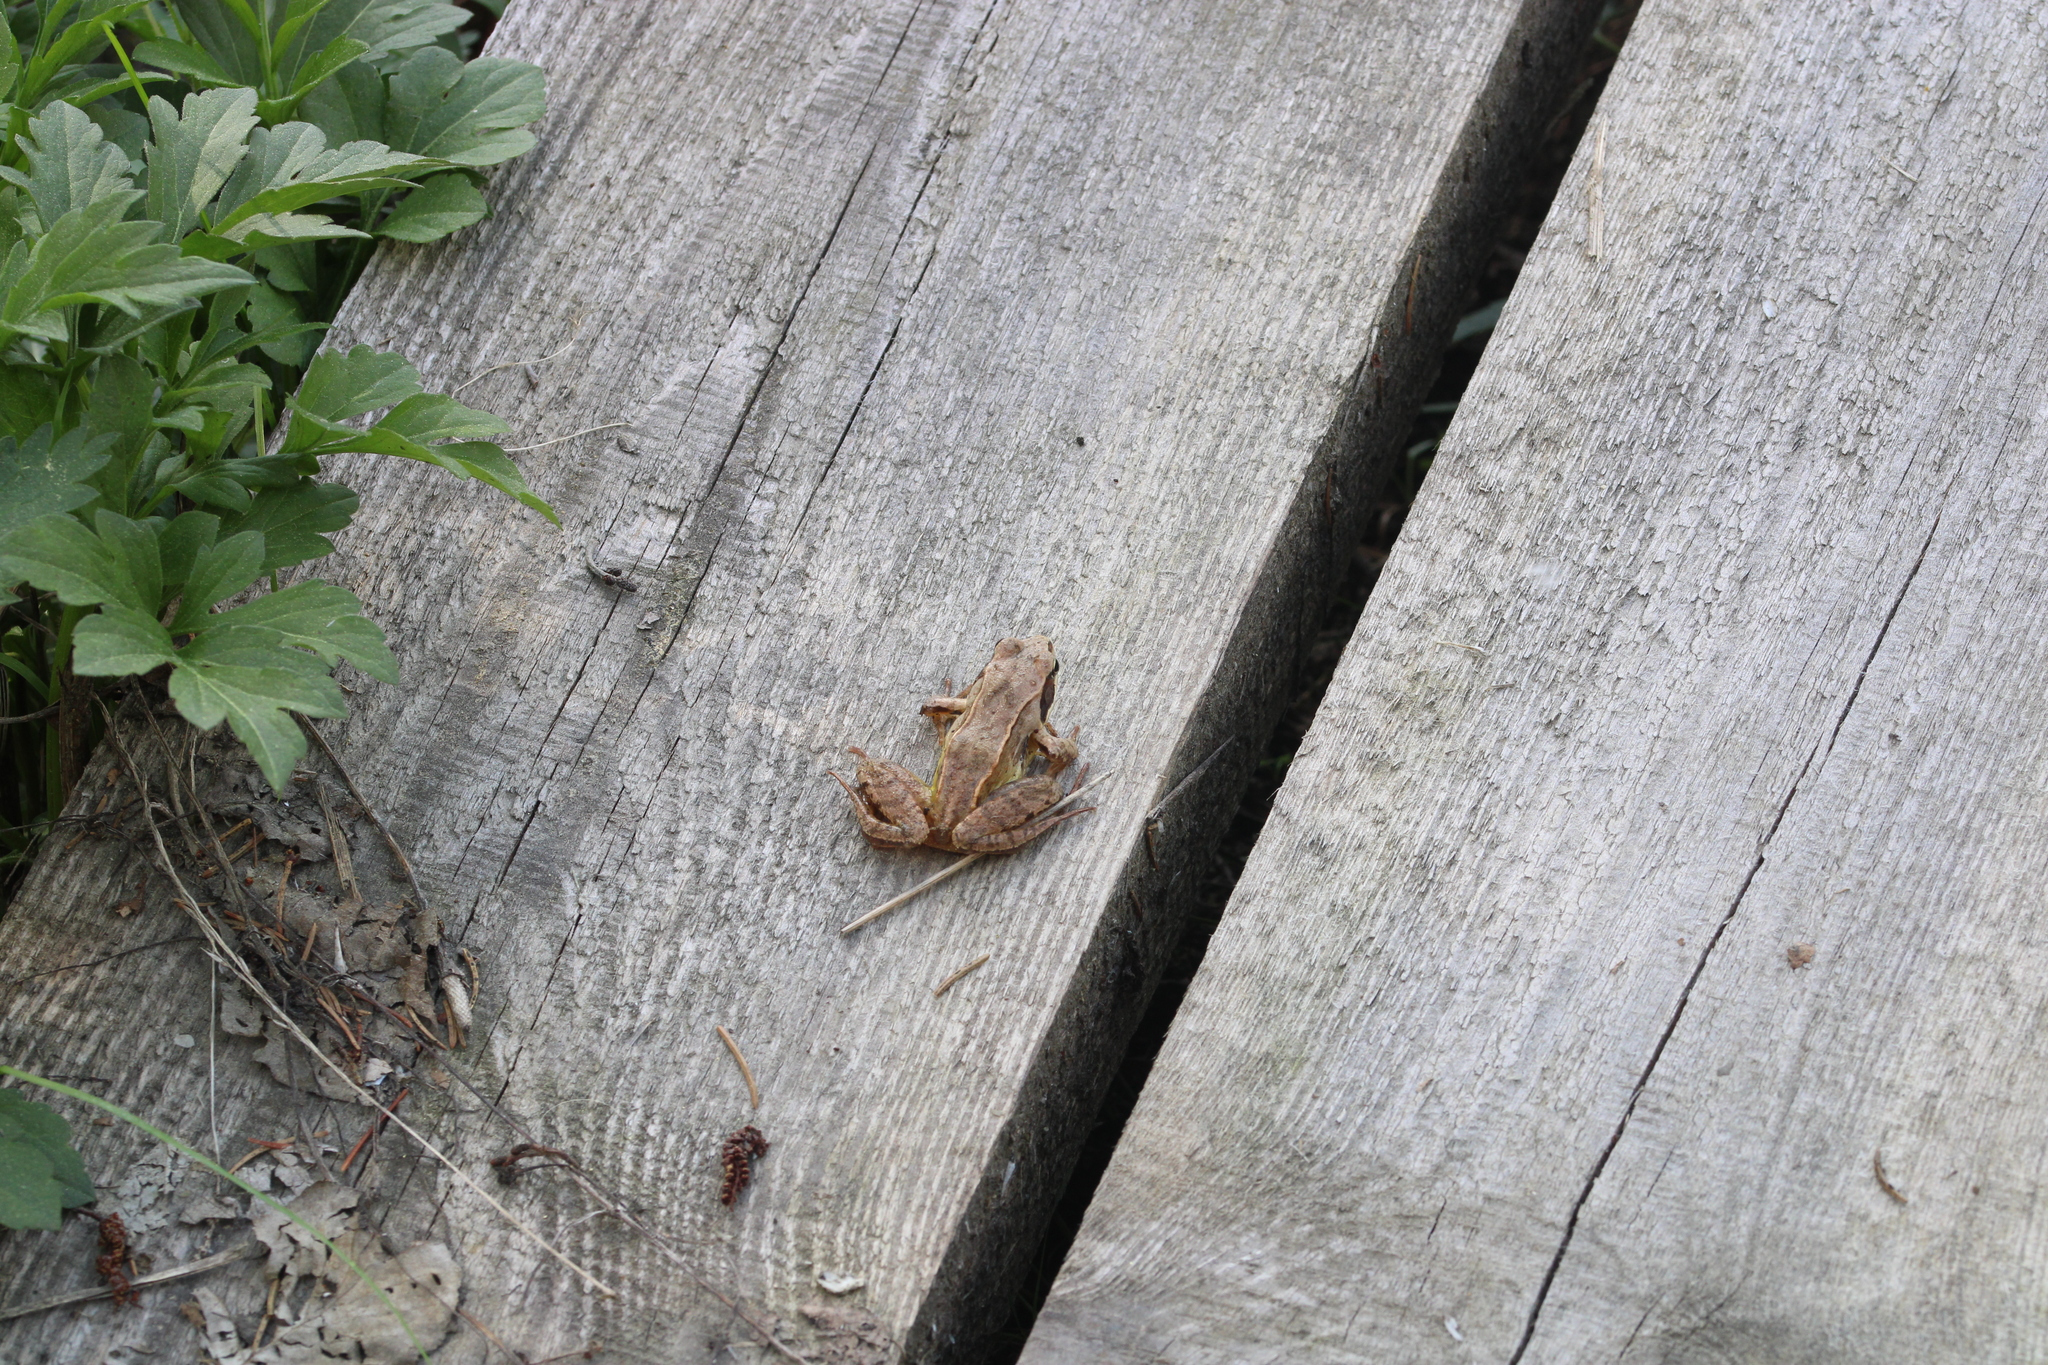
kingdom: Animalia
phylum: Chordata
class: Amphibia
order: Anura
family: Ranidae
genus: Rana
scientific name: Rana temporaria
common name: Common frog
